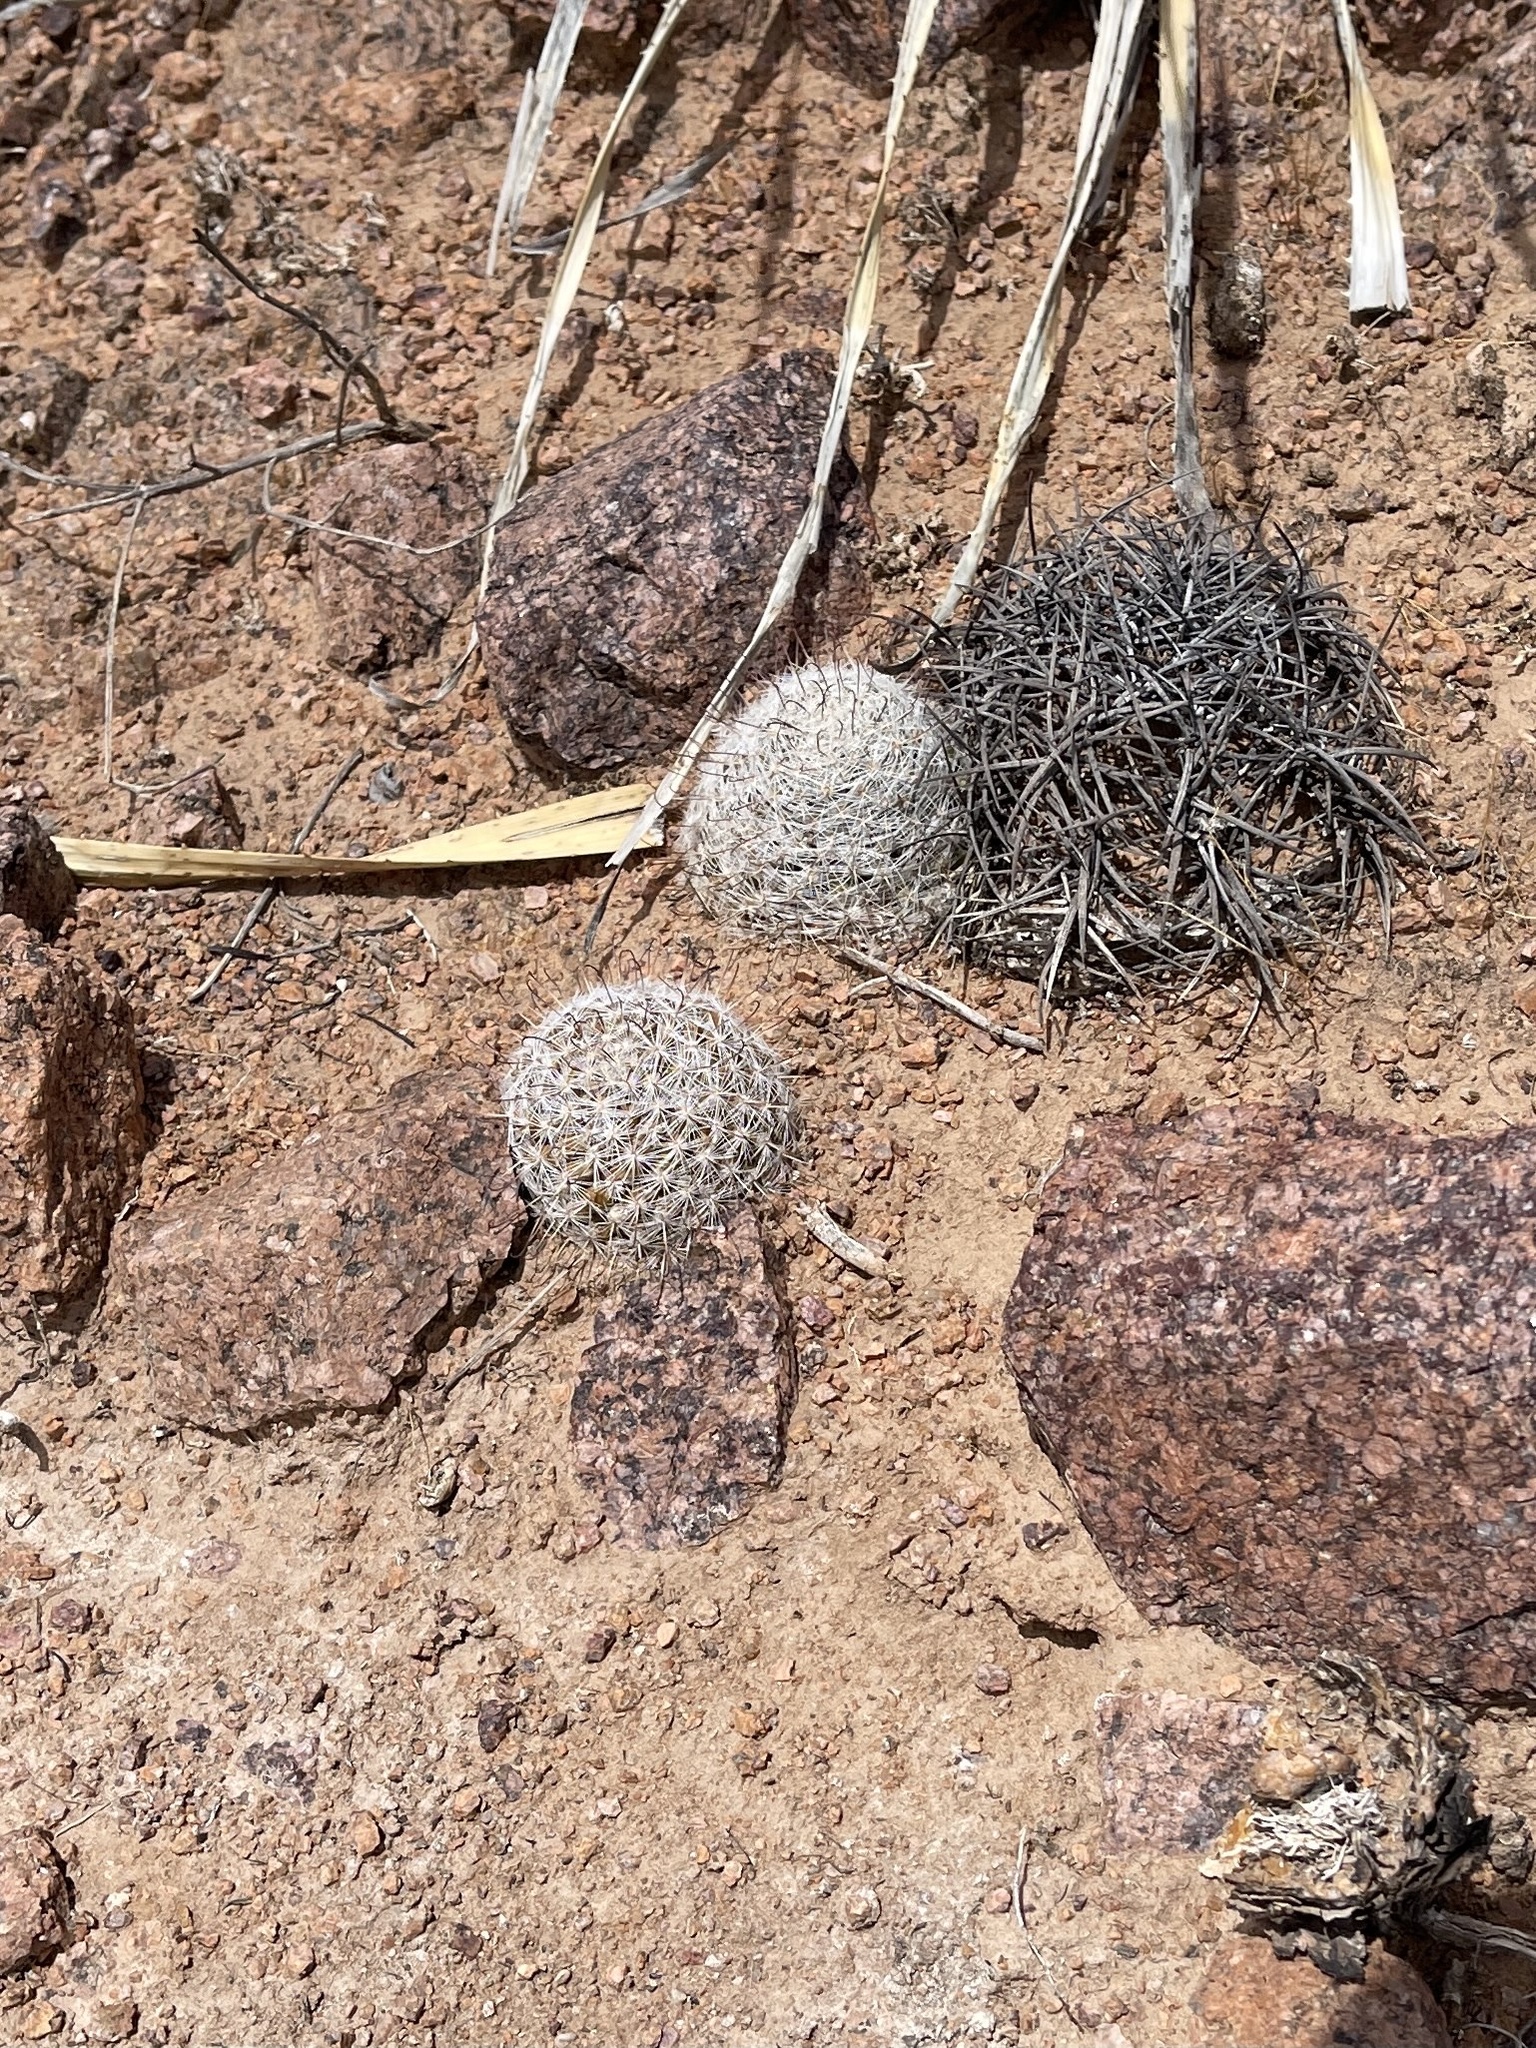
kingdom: Plantae
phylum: Tracheophyta
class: Magnoliopsida
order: Caryophyllales
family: Cactaceae
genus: Cochemiea
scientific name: Cochemiea grahamii
